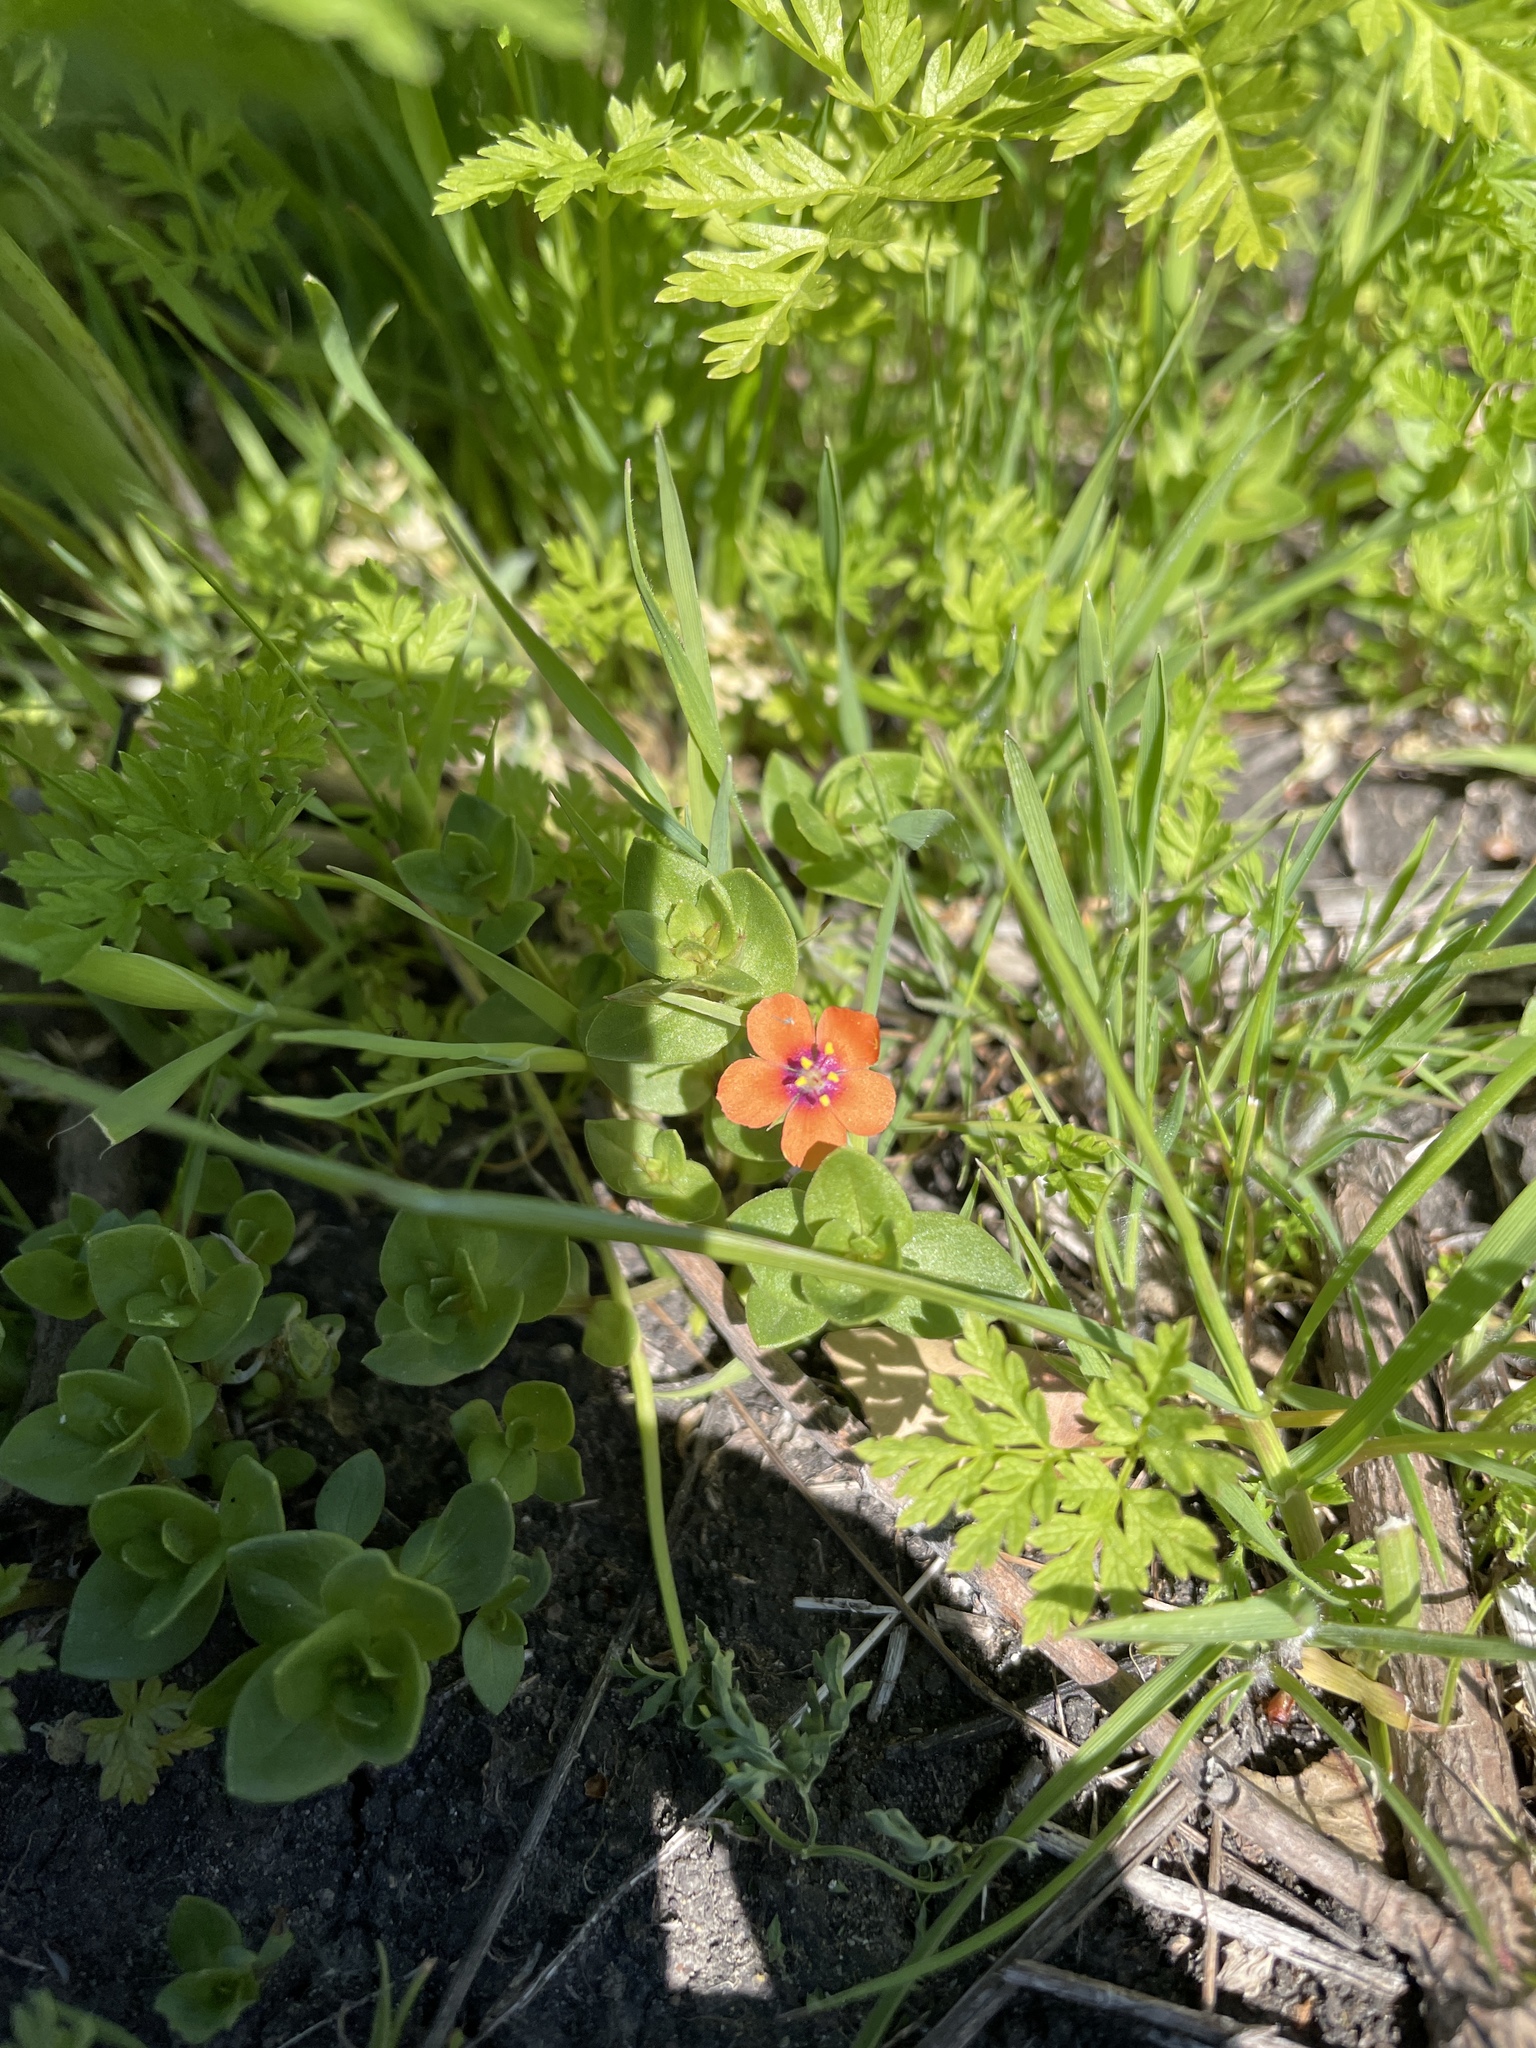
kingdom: Plantae
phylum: Tracheophyta
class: Magnoliopsida
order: Ericales
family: Primulaceae
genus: Lysimachia
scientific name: Lysimachia arvensis
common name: Scarlet pimpernel
